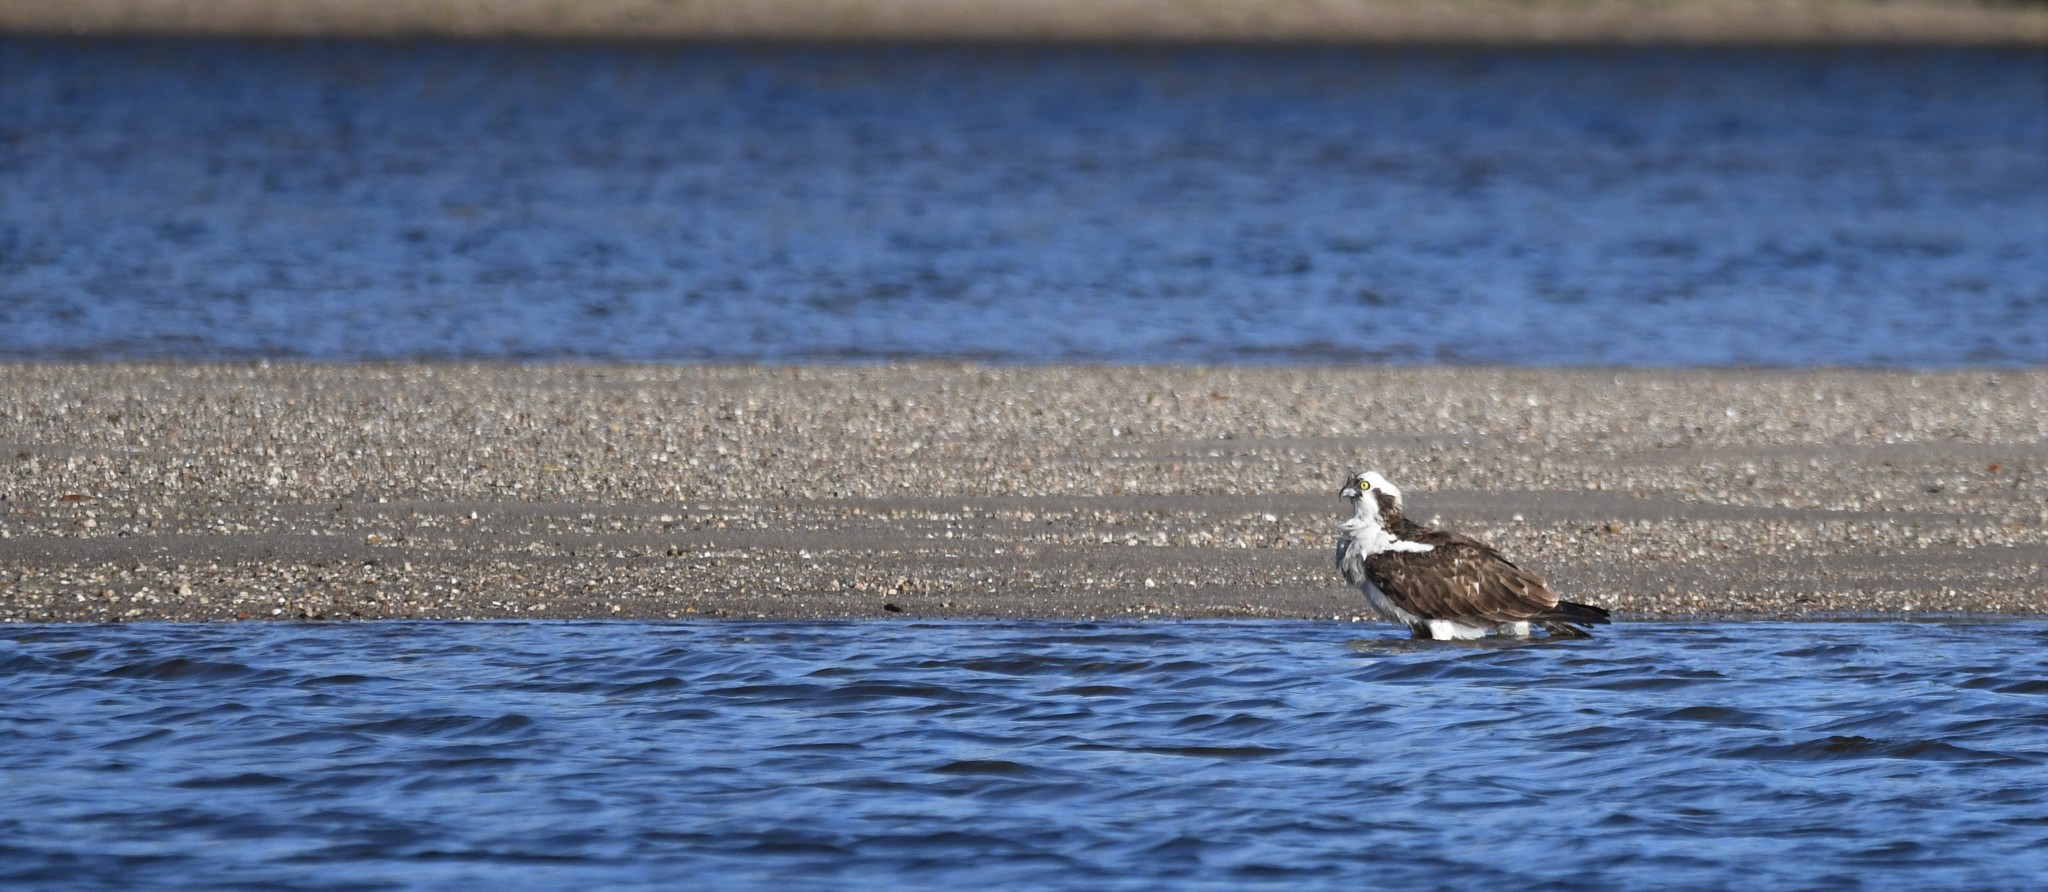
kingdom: Animalia
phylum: Chordata
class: Aves
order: Accipitriformes
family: Pandionidae
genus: Pandion
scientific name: Pandion haliaetus
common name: Osprey
